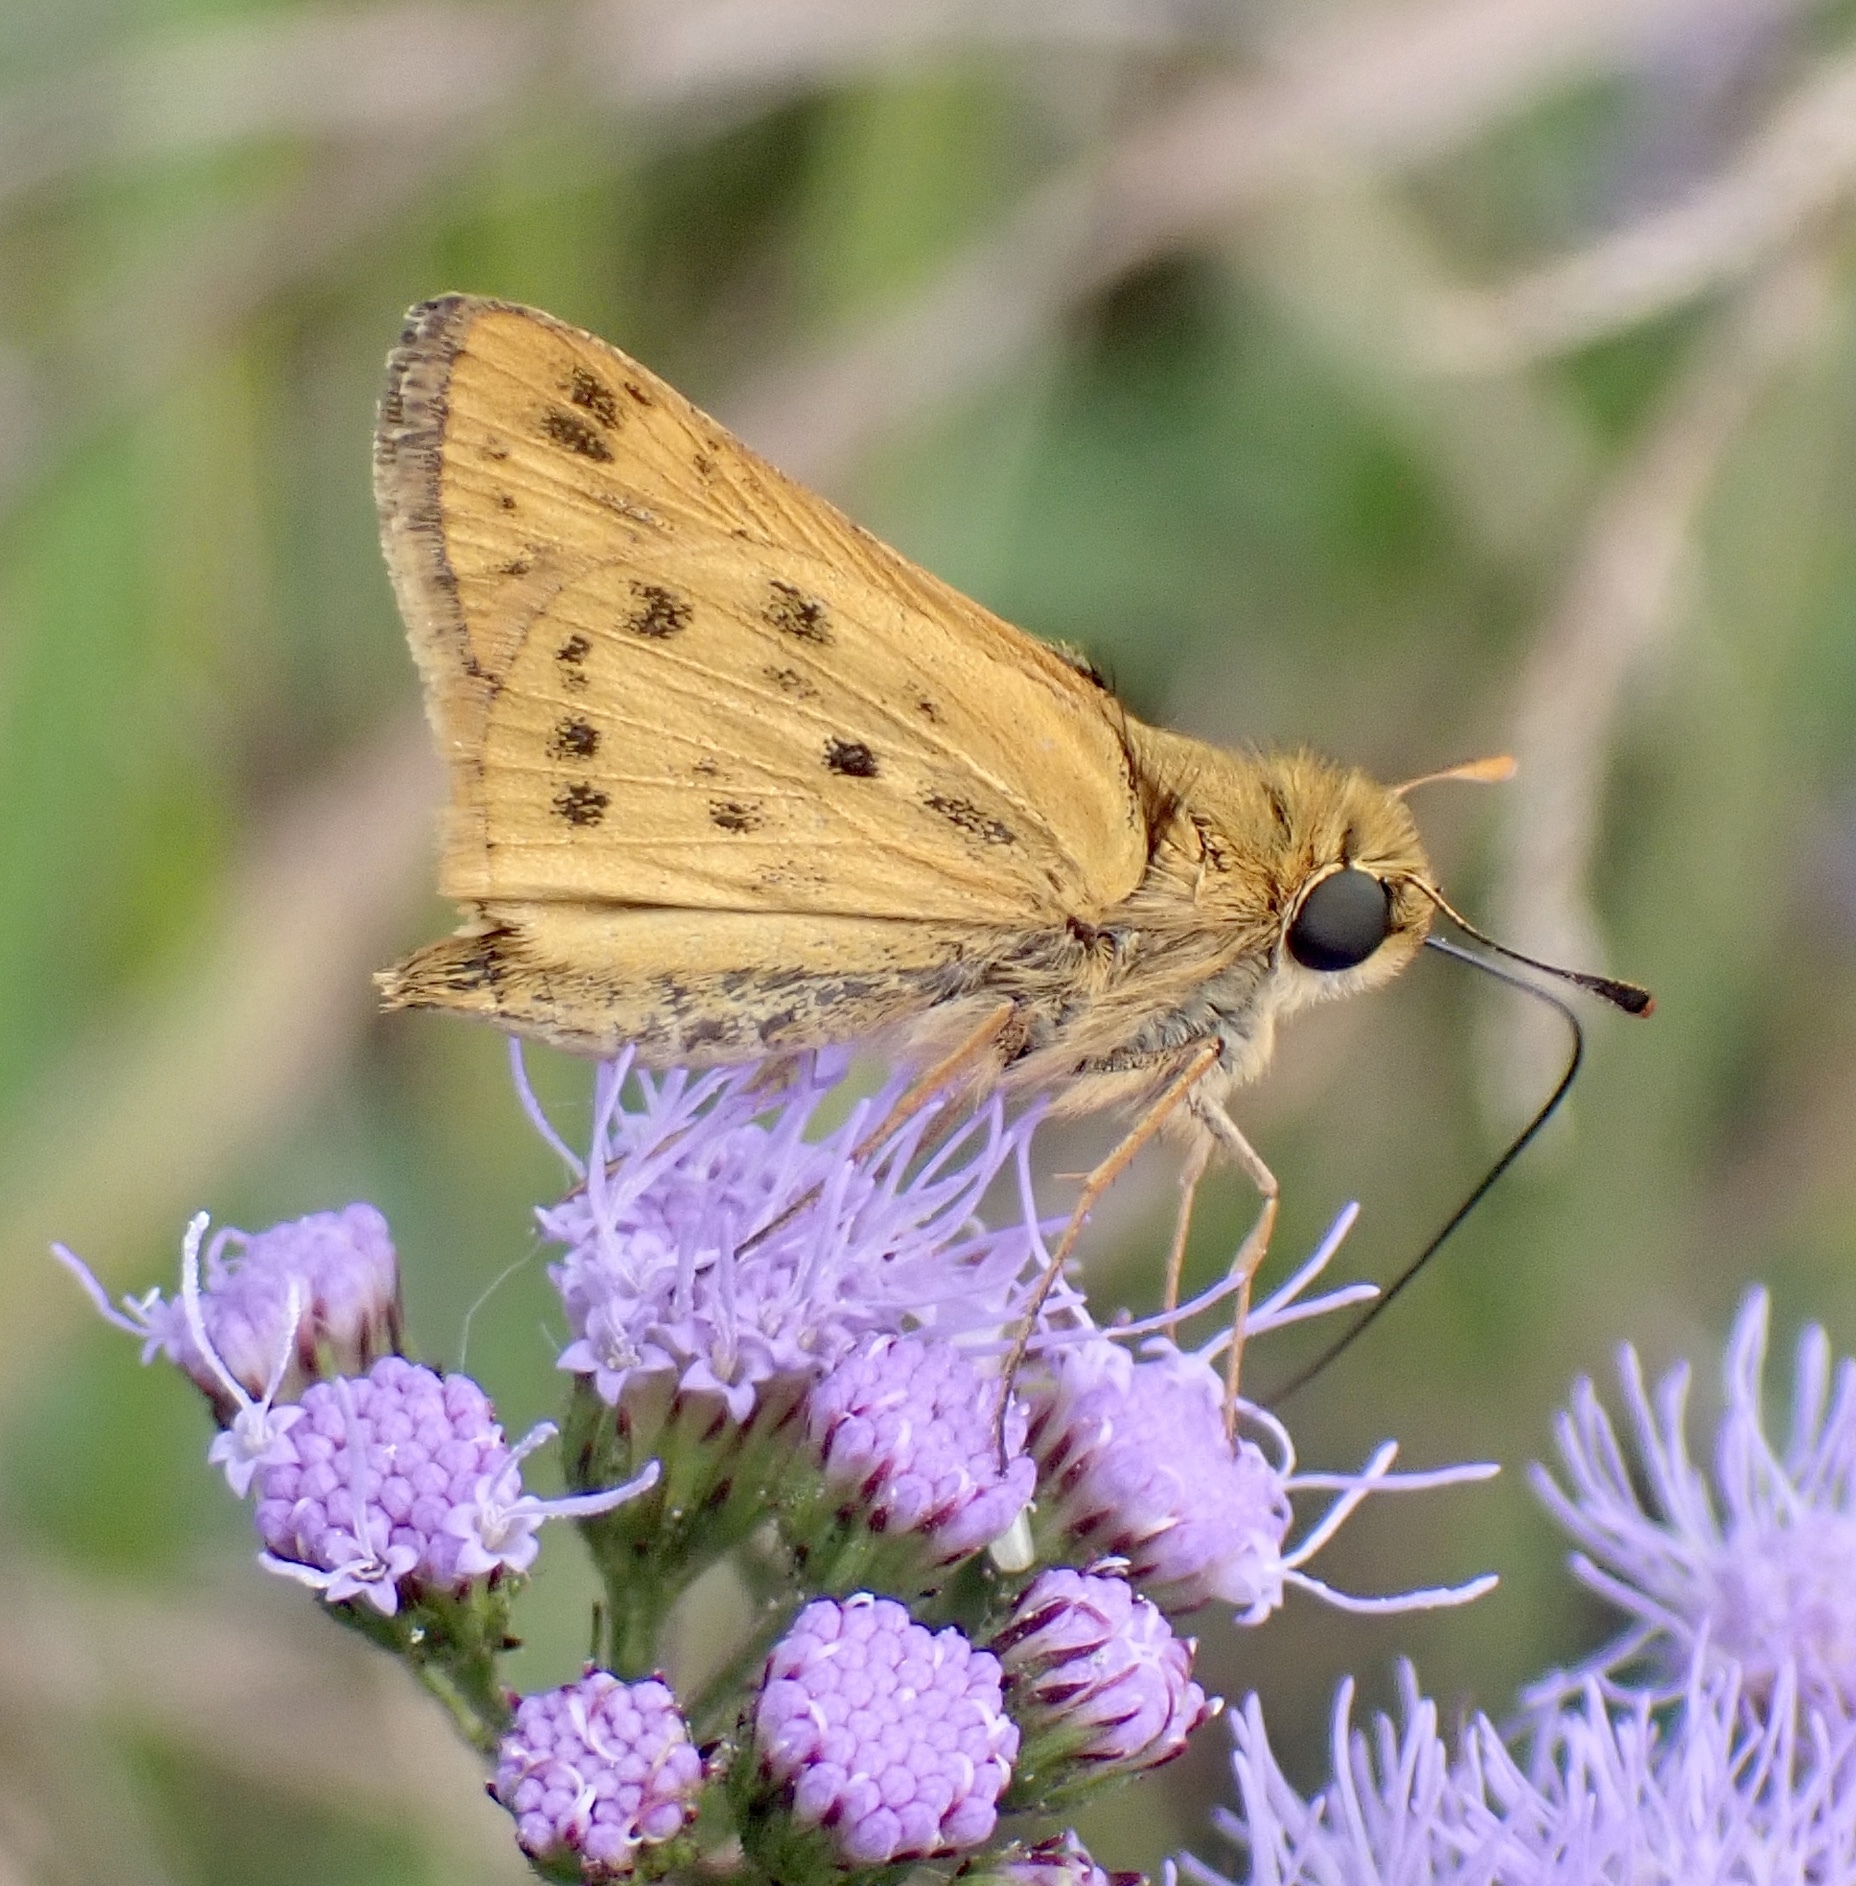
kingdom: Animalia
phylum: Arthropoda
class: Insecta
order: Lepidoptera
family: Hesperiidae
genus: Hylephila
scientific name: Hylephila phyleus
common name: Fiery skipper
